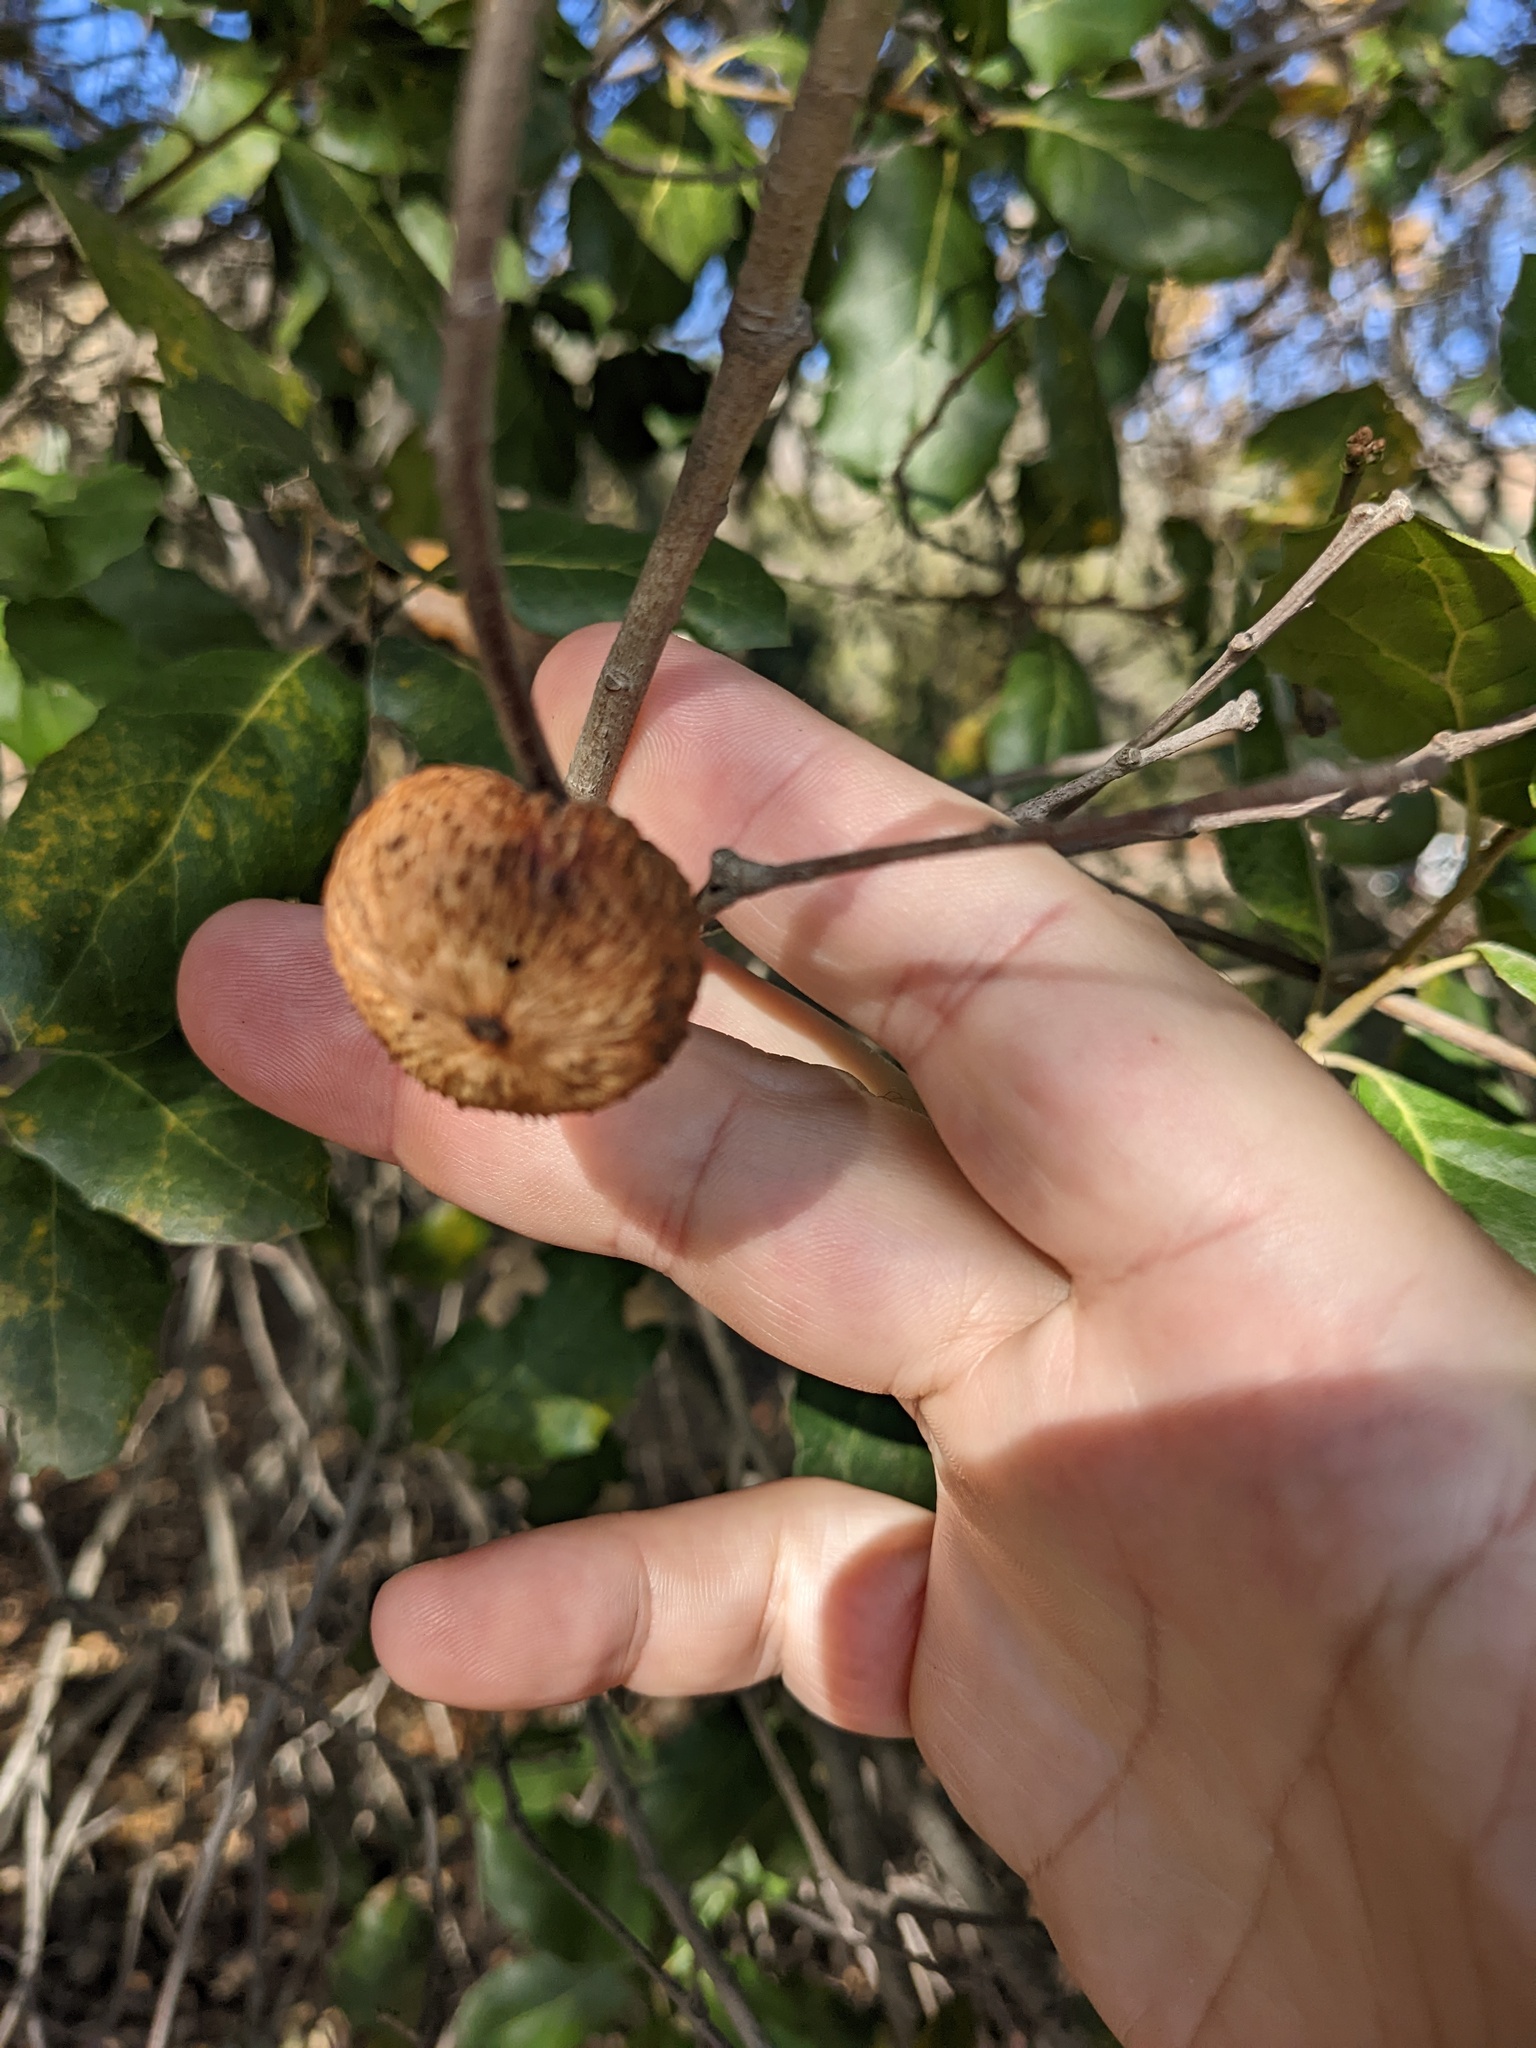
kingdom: Animalia
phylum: Arthropoda
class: Insecta
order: Hymenoptera
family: Cynipidae
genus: Amphibolips
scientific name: Amphibolips quercuspomiformis
